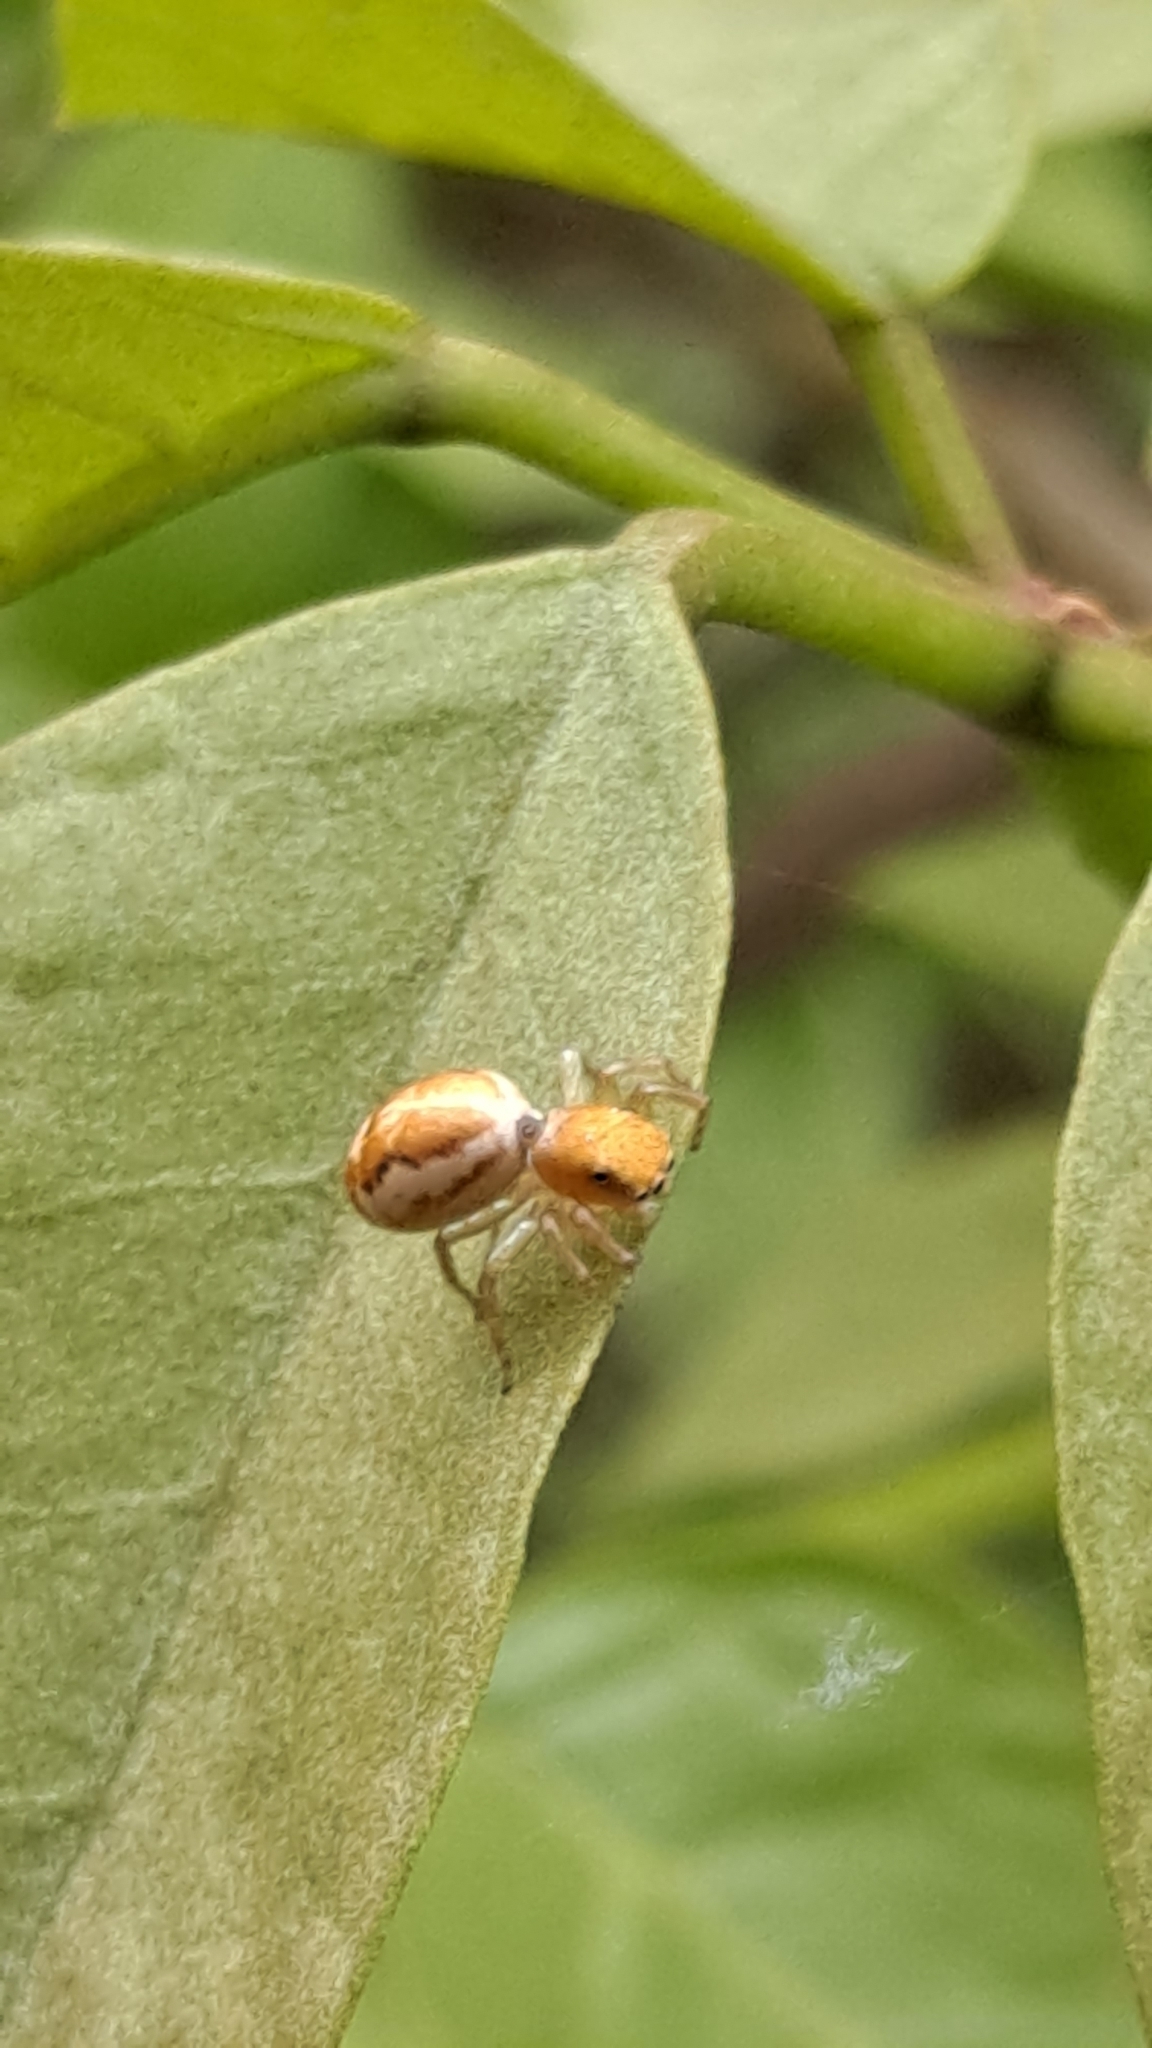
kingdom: Animalia
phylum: Arthropoda
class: Arachnida
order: Araneae
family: Salticidae
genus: Cosmophasis
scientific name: Cosmophasis lami
